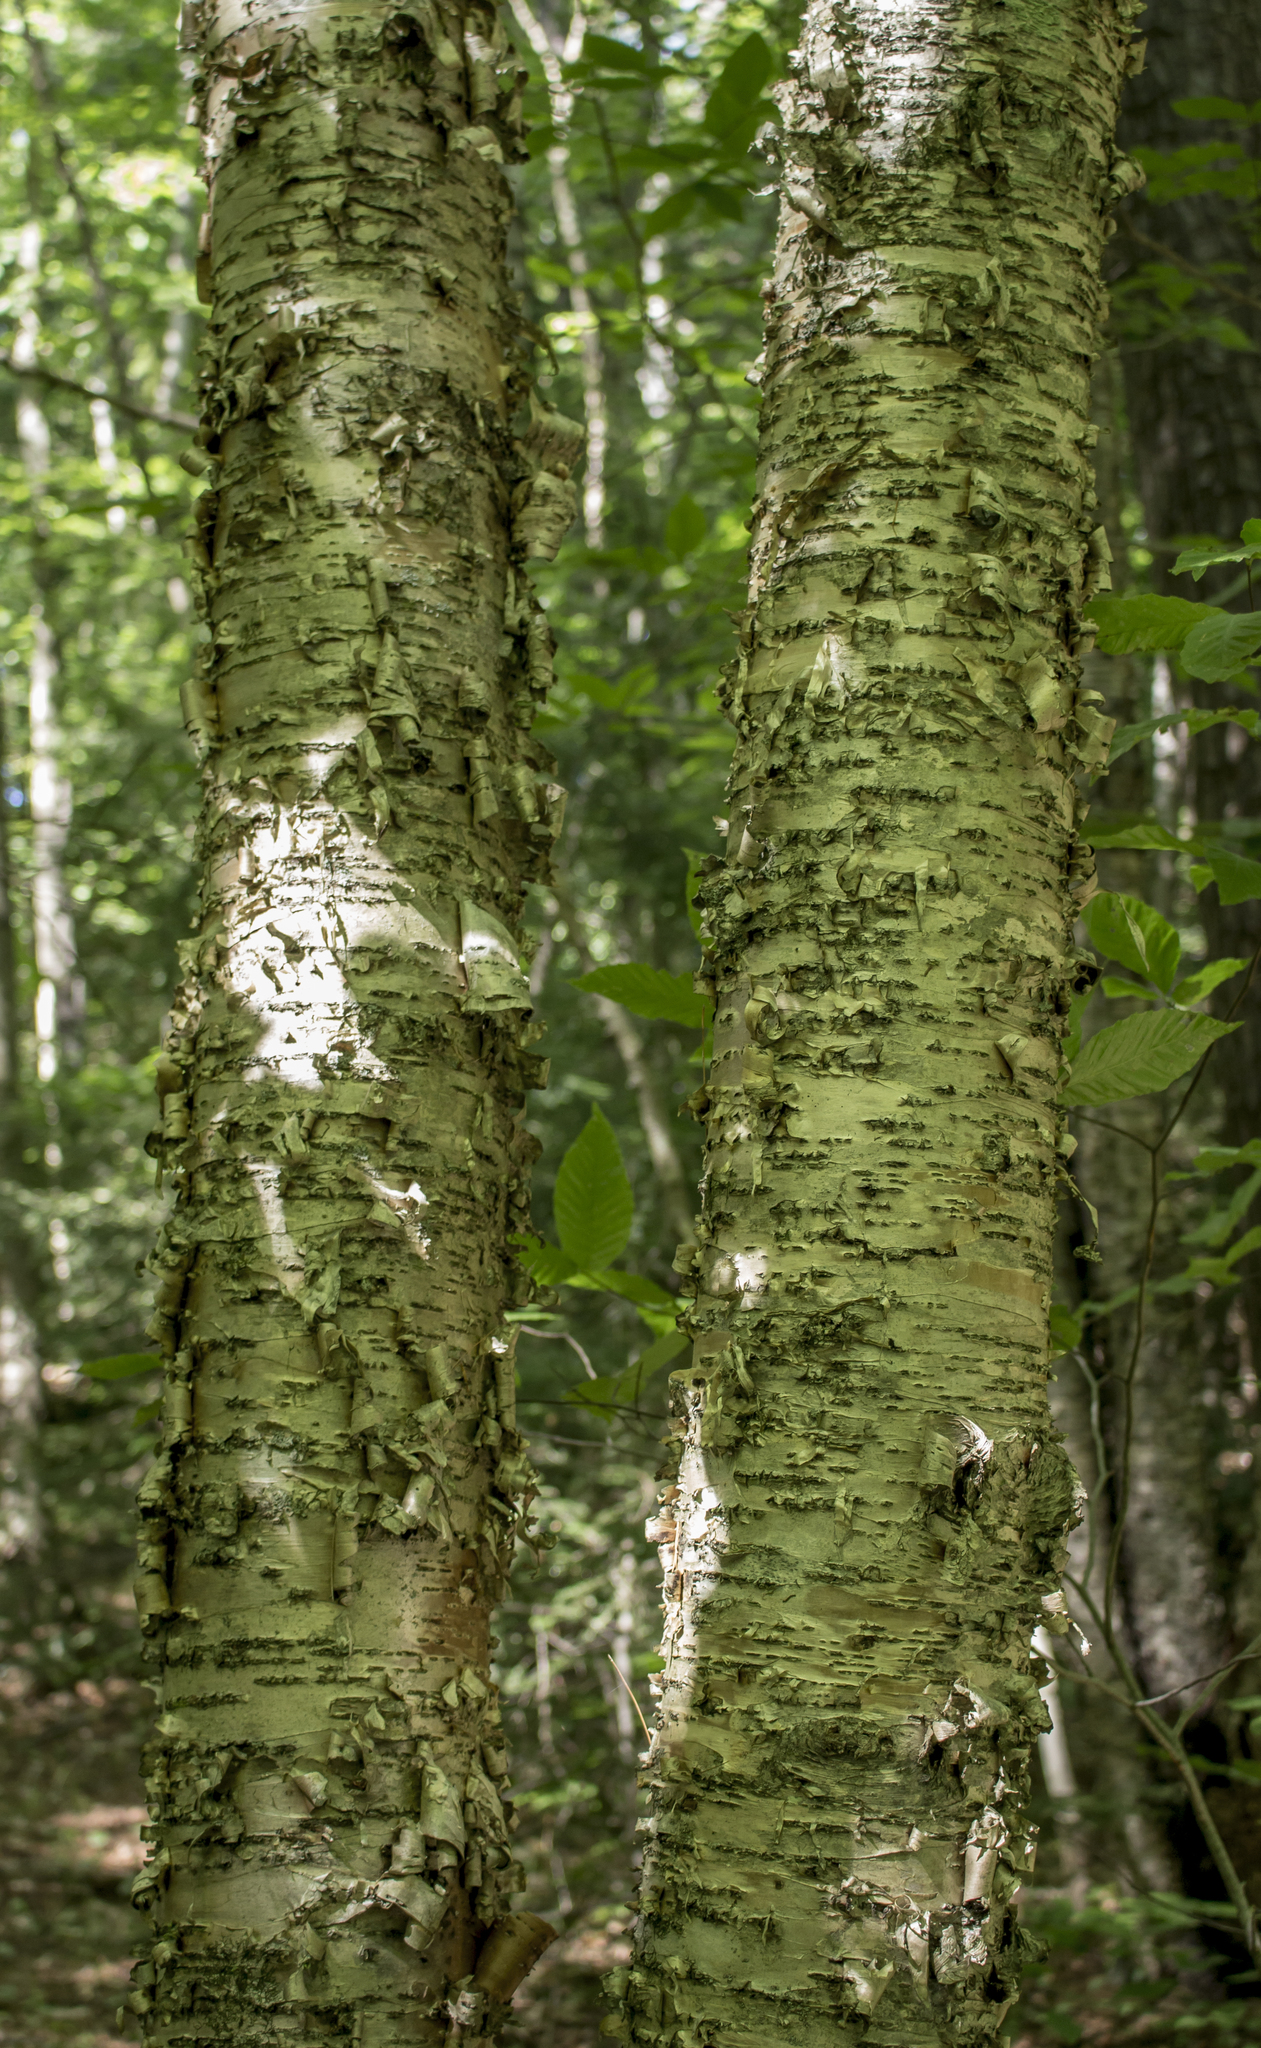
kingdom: Plantae
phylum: Tracheophyta
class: Magnoliopsida
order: Fagales
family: Betulaceae
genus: Betula
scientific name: Betula alleghaniensis
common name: Yellow birch
